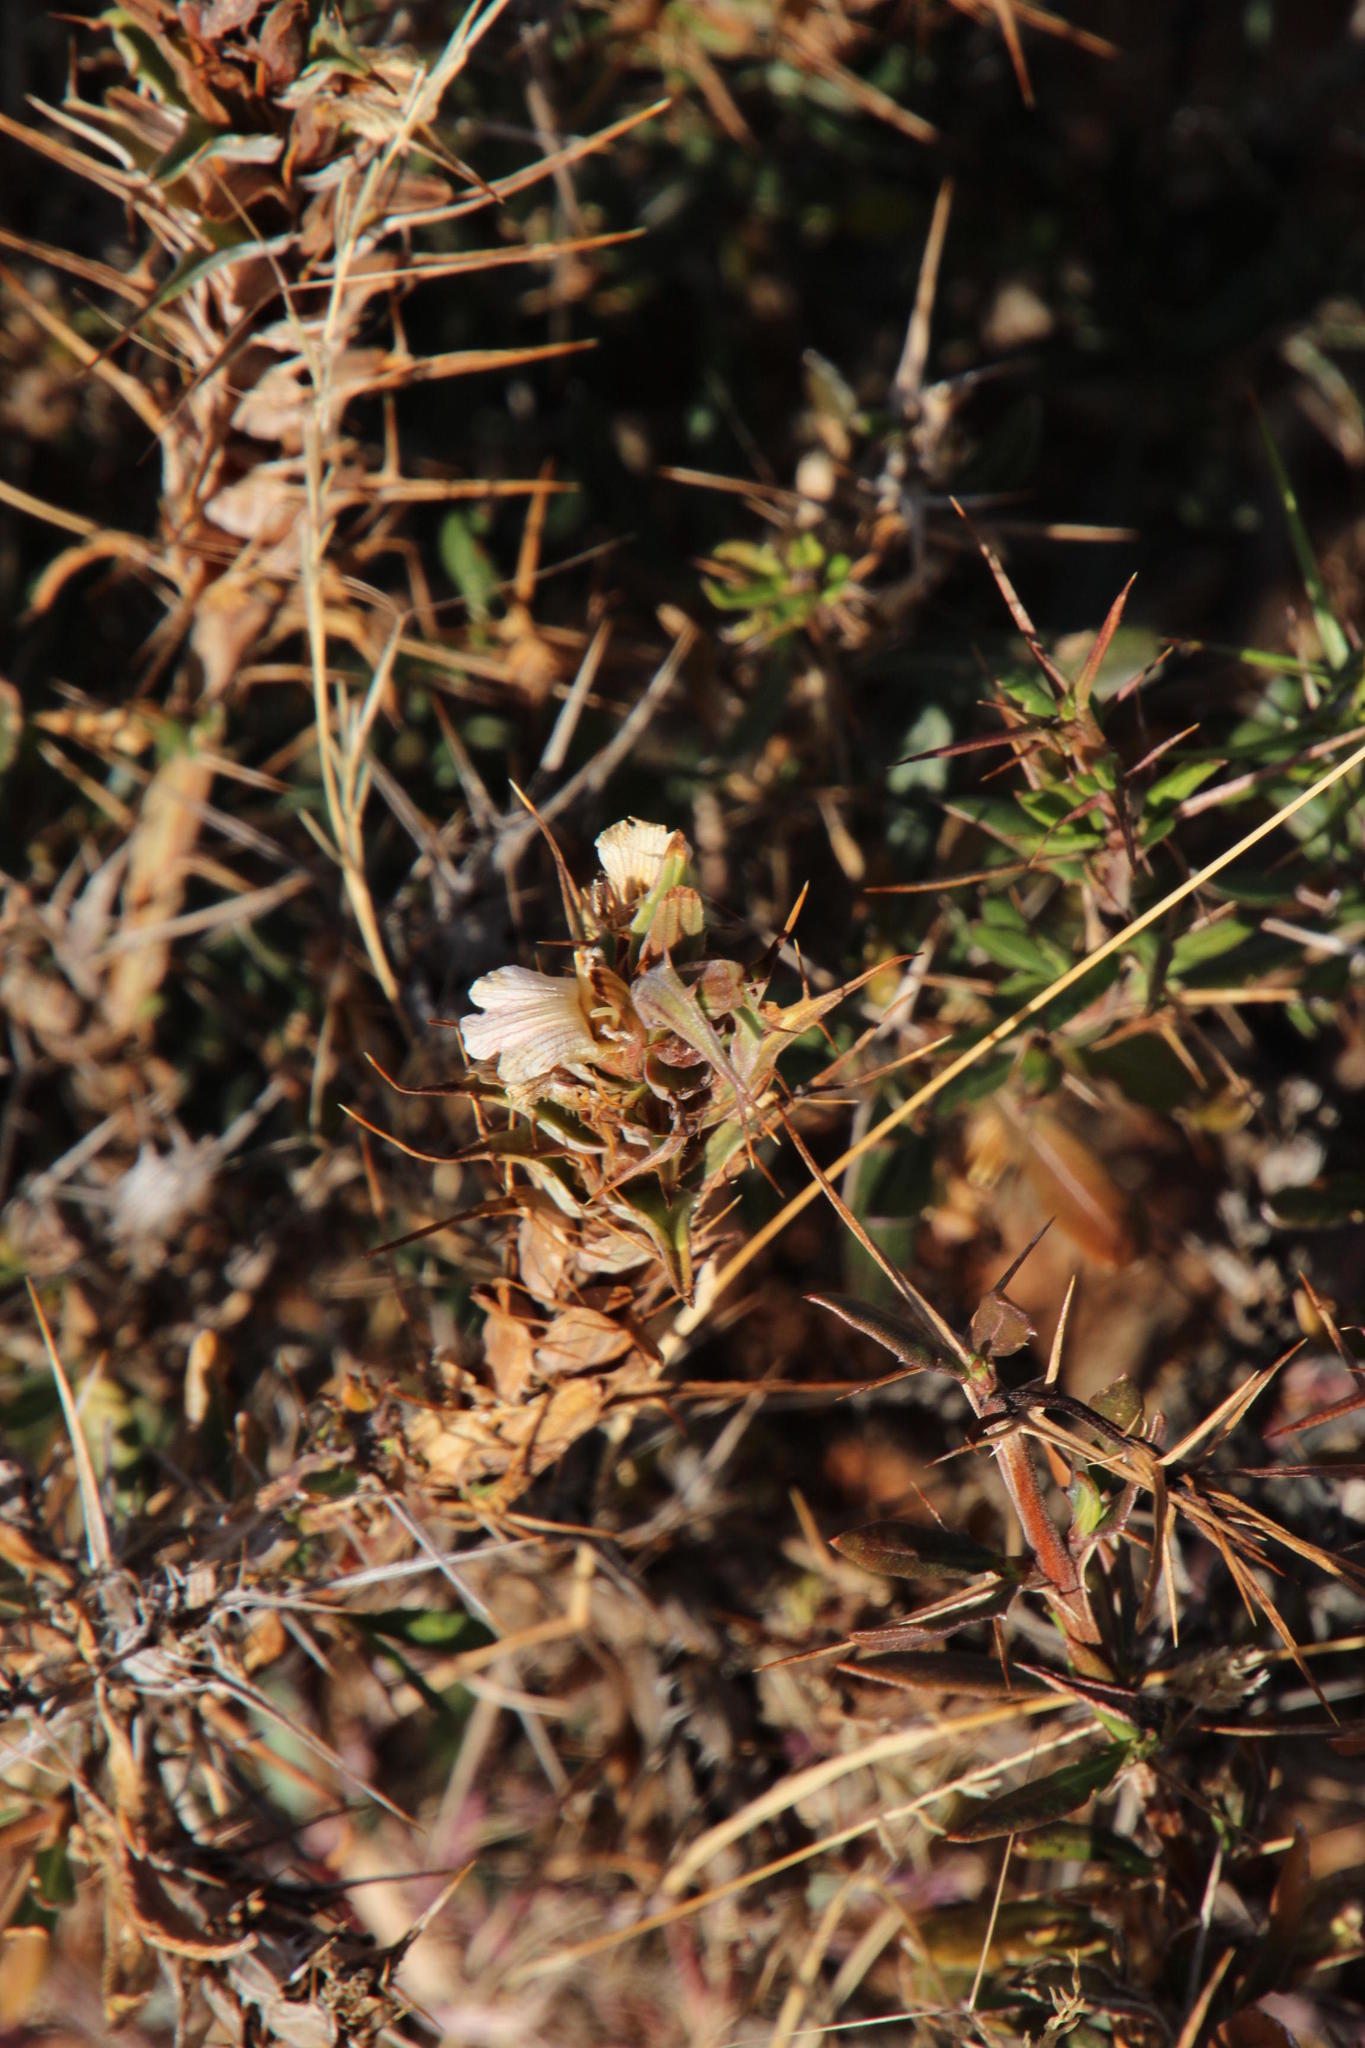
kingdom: Plantae
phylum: Tracheophyta
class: Magnoliopsida
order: Lamiales
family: Acanthaceae
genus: Blepharis
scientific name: Blepharis capensis
